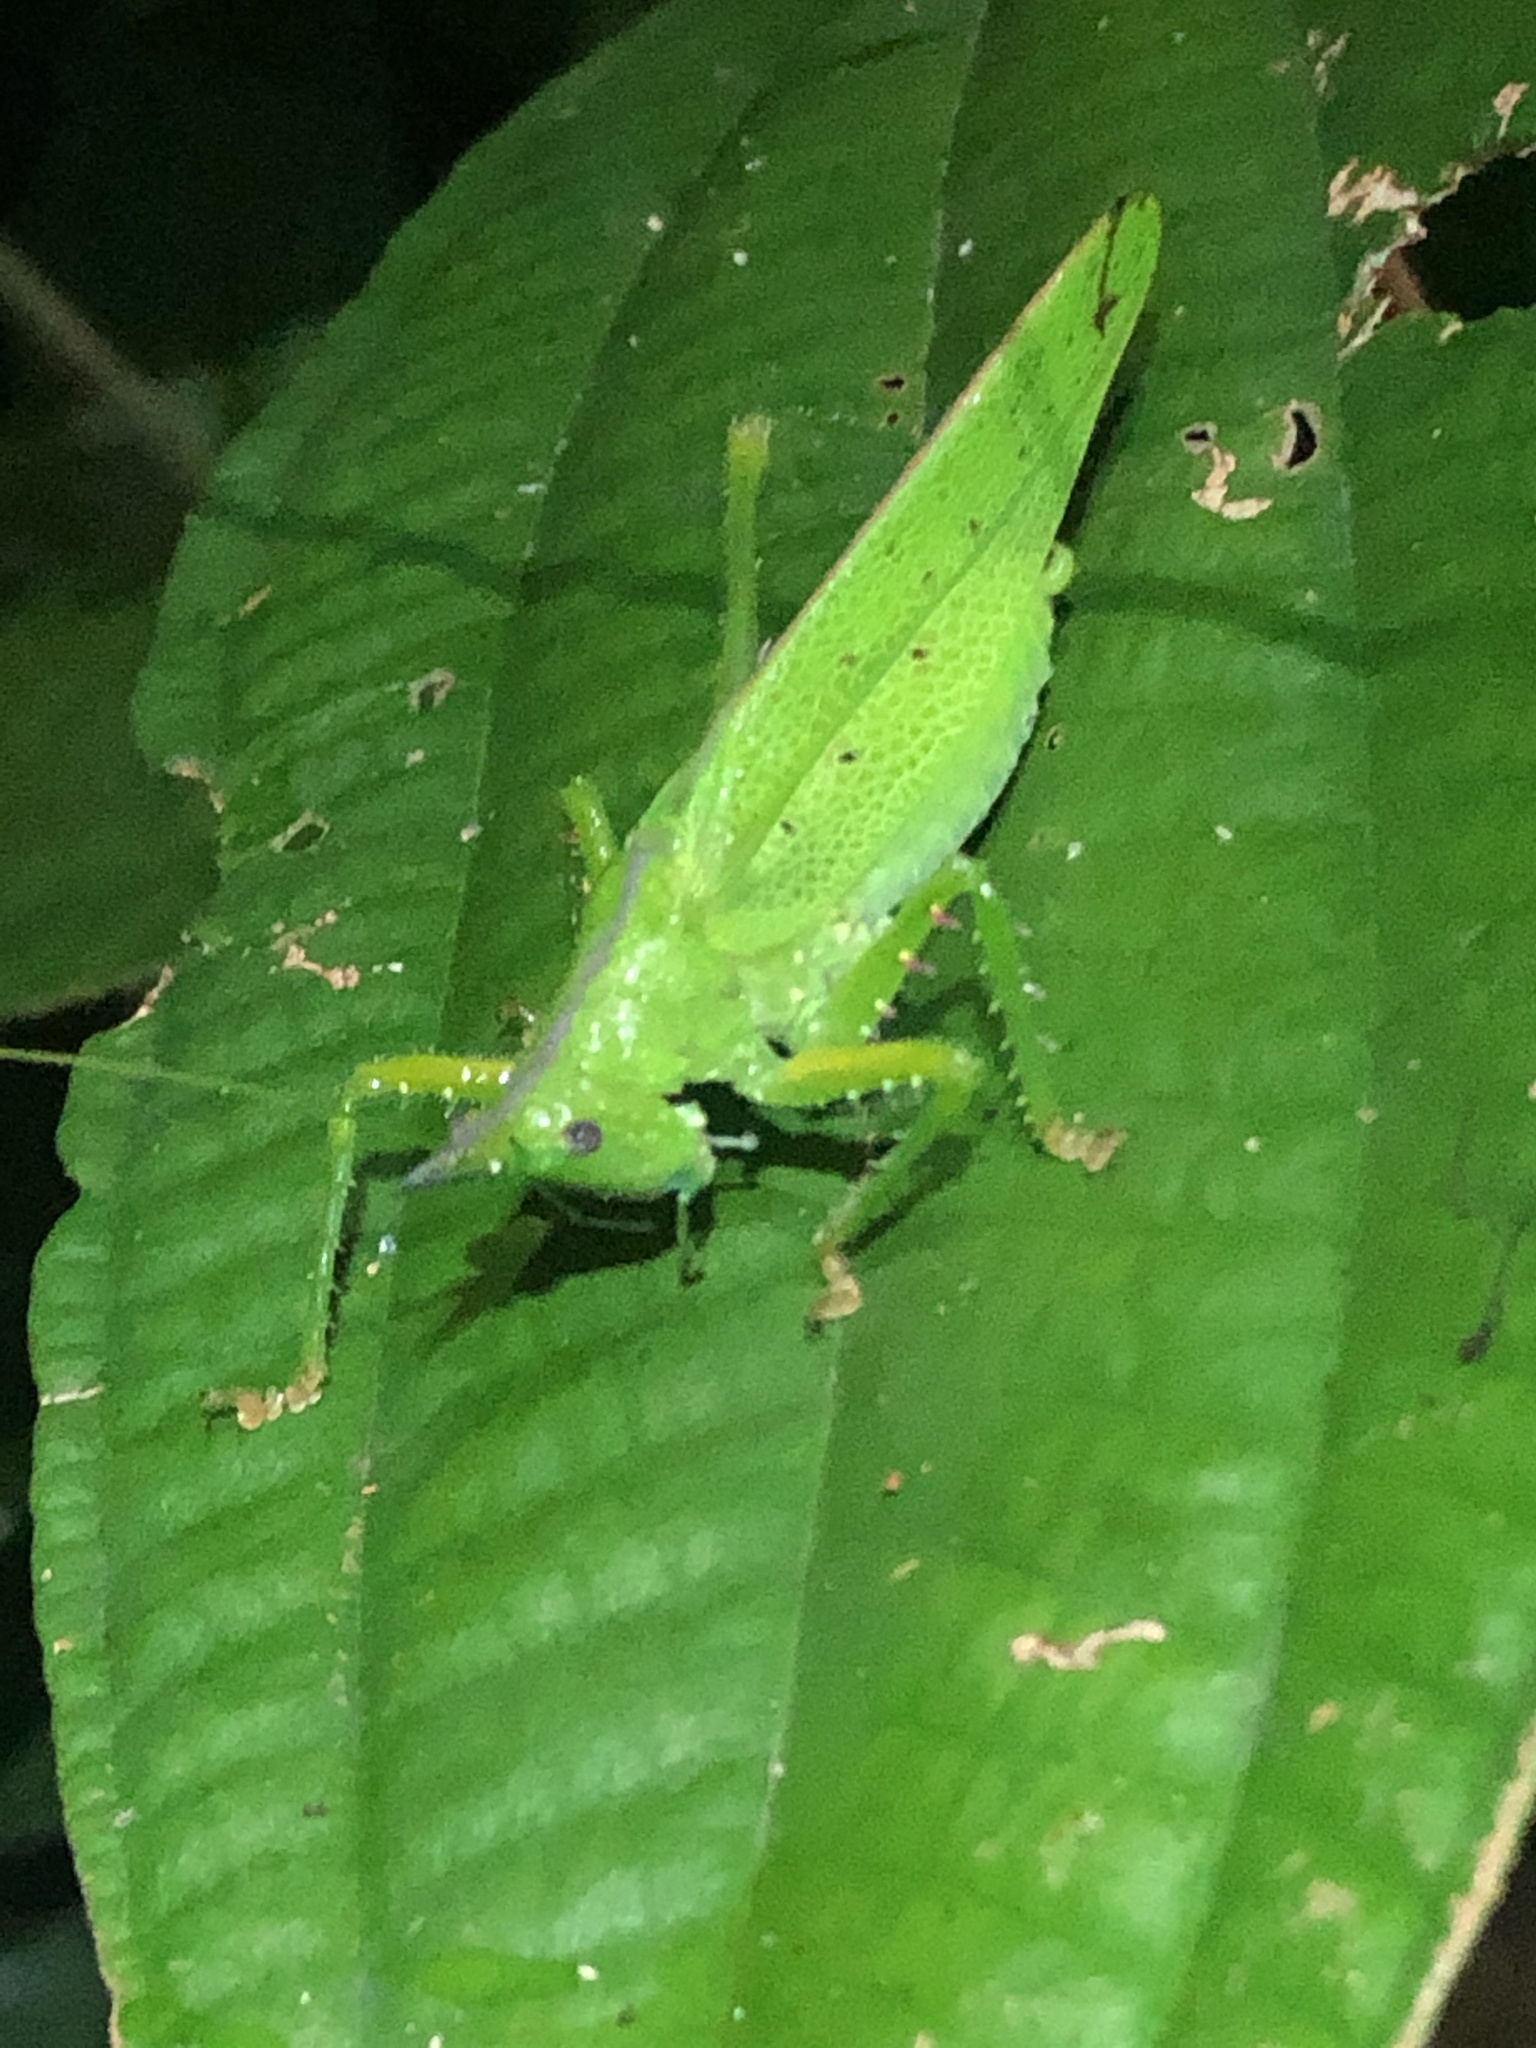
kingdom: Animalia
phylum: Arthropoda
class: Insecta
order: Orthoptera
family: Tettigoniidae
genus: Copiphora
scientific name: Copiphora gracilis
